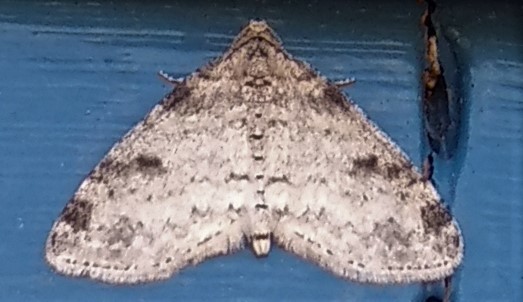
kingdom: Animalia
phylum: Arthropoda
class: Insecta
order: Lepidoptera
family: Geometridae
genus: Lobophora
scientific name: Lobophora nivigerata
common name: Powdered bigwing
